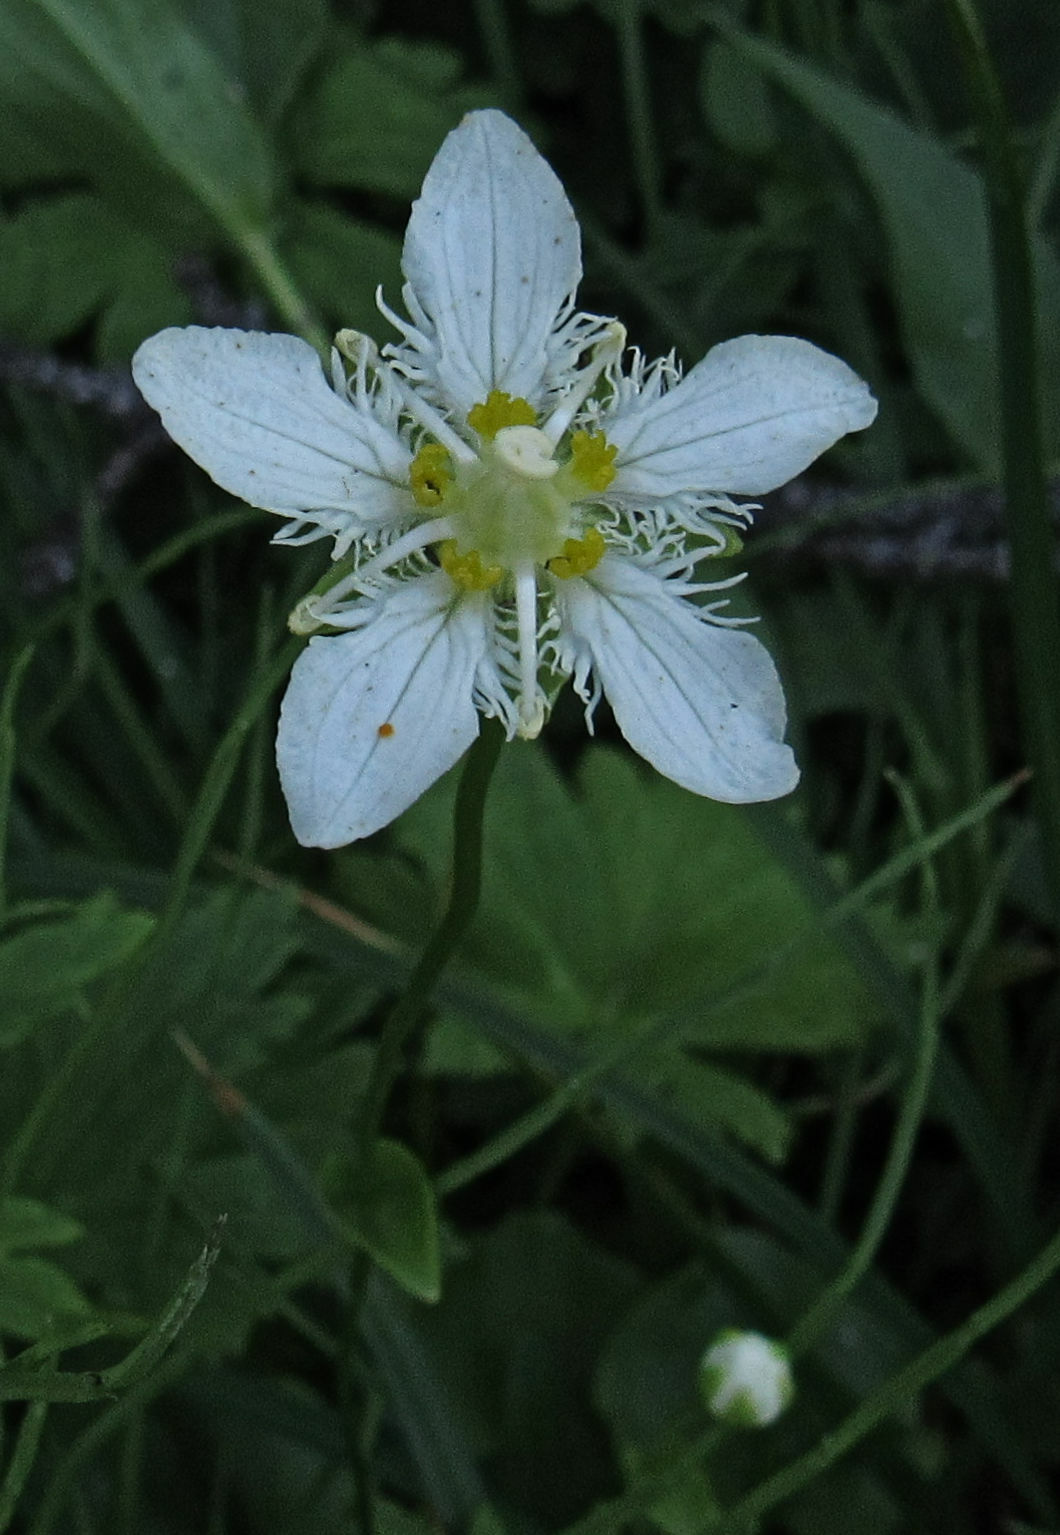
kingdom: Plantae
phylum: Tracheophyta
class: Magnoliopsida
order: Celastrales
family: Parnassiaceae
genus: Parnassia
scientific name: Parnassia fimbriata
